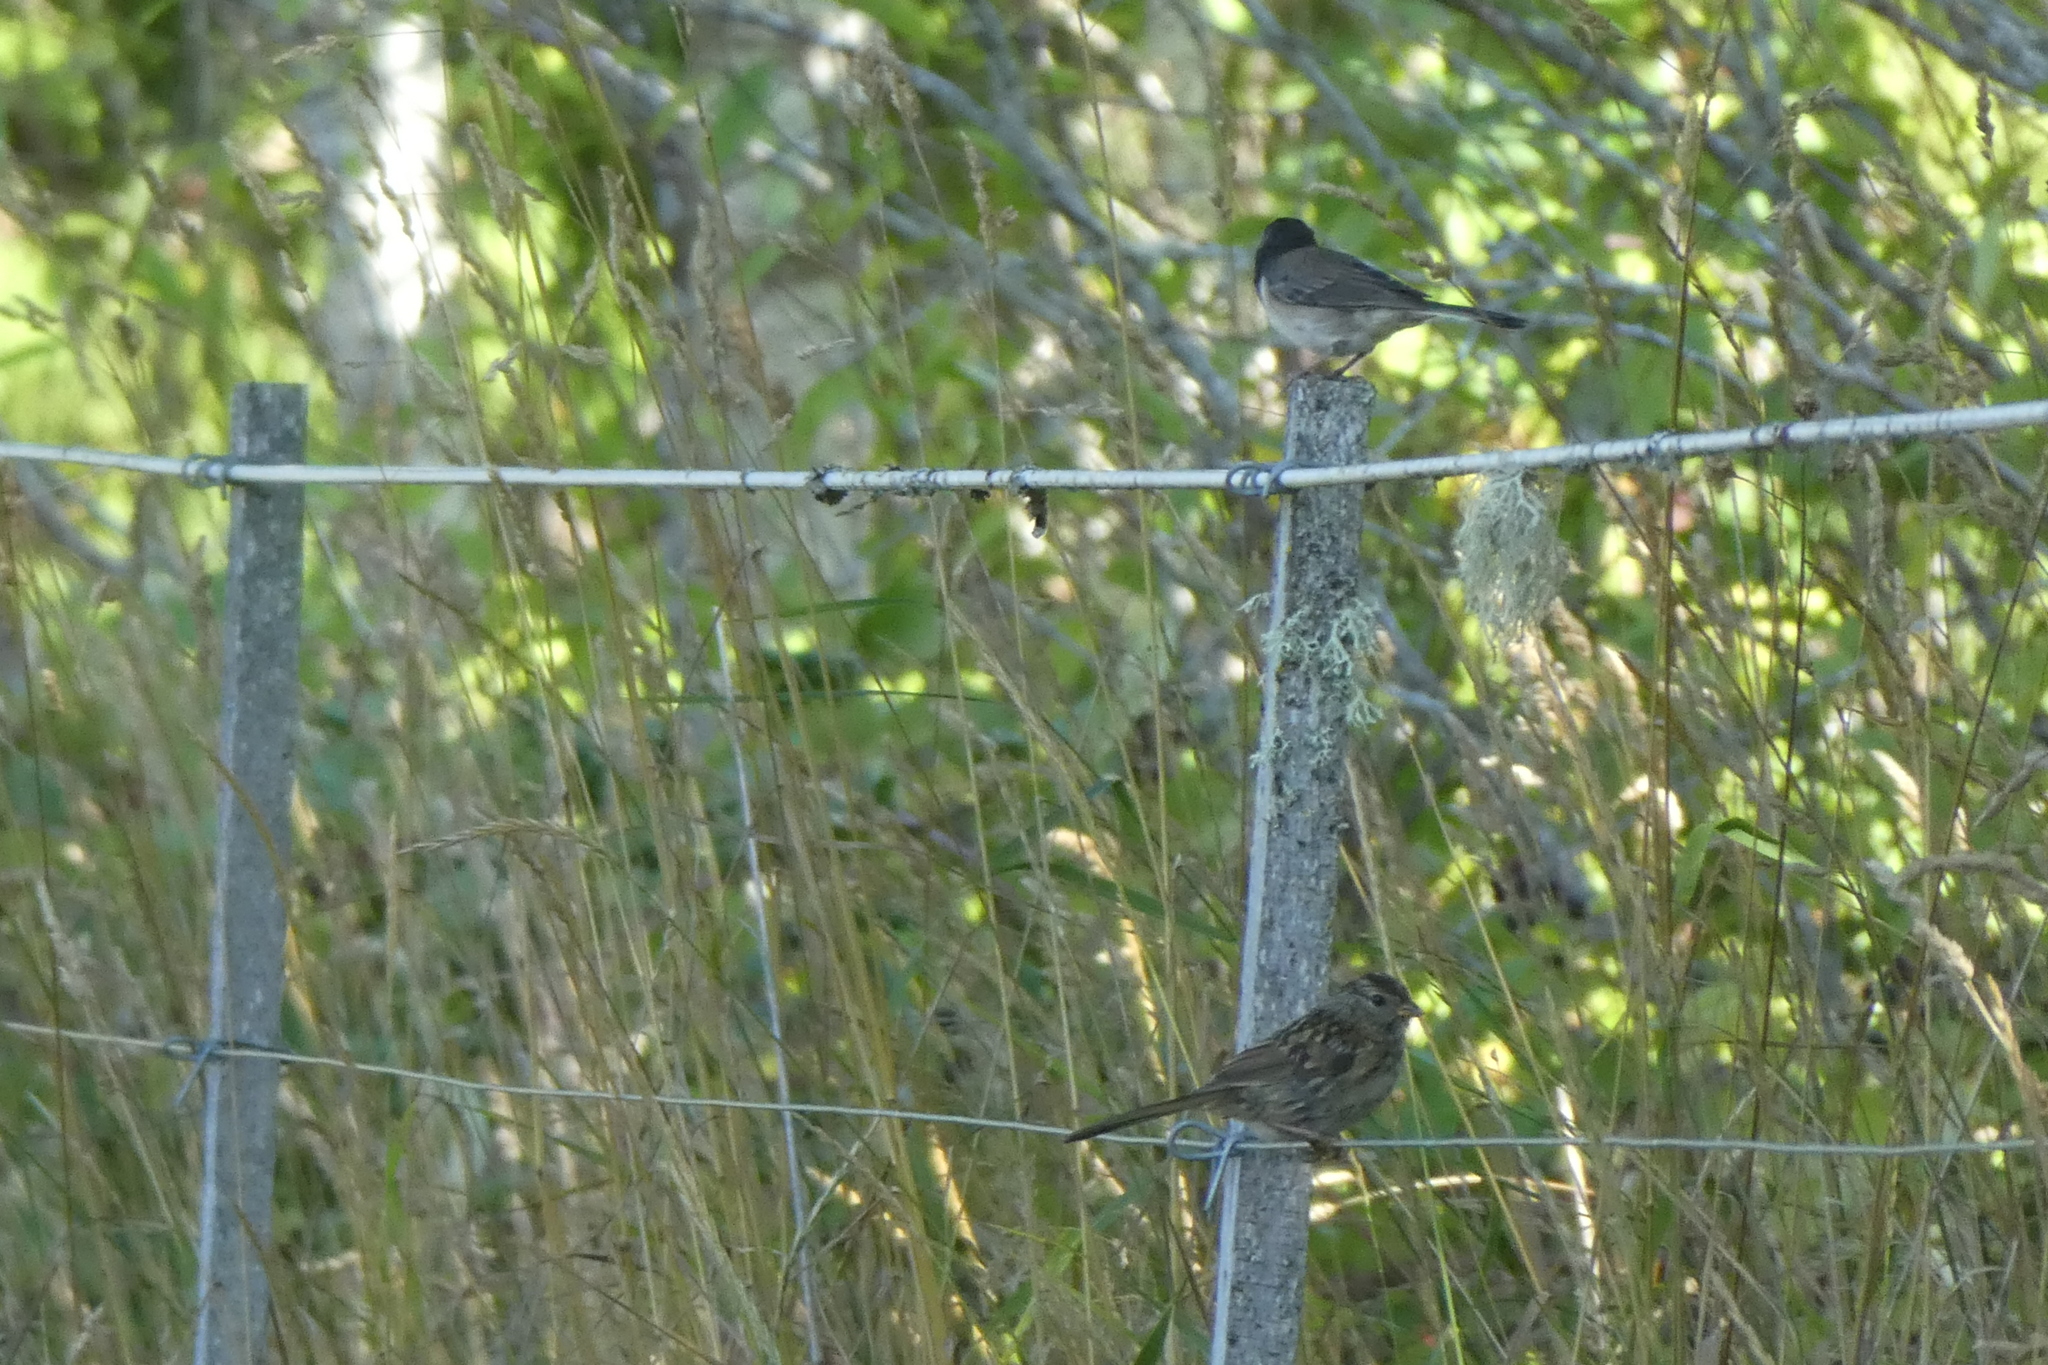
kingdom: Animalia
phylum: Chordata
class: Aves
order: Passeriformes
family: Passerellidae
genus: Zonotrichia
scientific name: Zonotrichia leucophrys
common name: White-crowned sparrow
